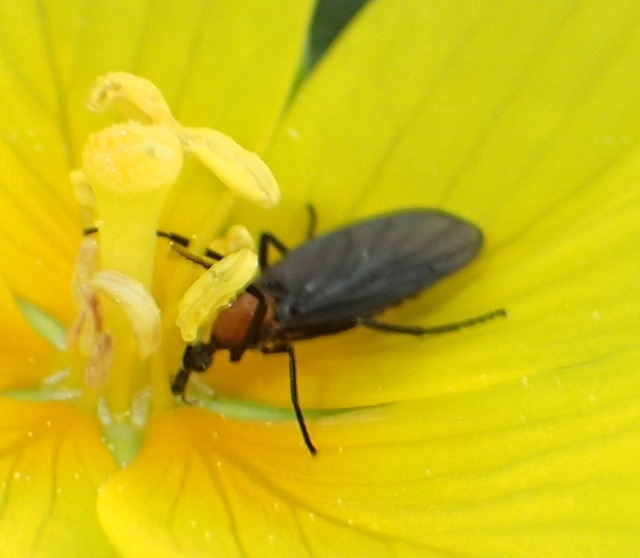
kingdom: Animalia
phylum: Arthropoda
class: Insecta
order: Diptera
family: Bibionidae
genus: Plecia
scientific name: Plecia nearctica
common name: March fly
